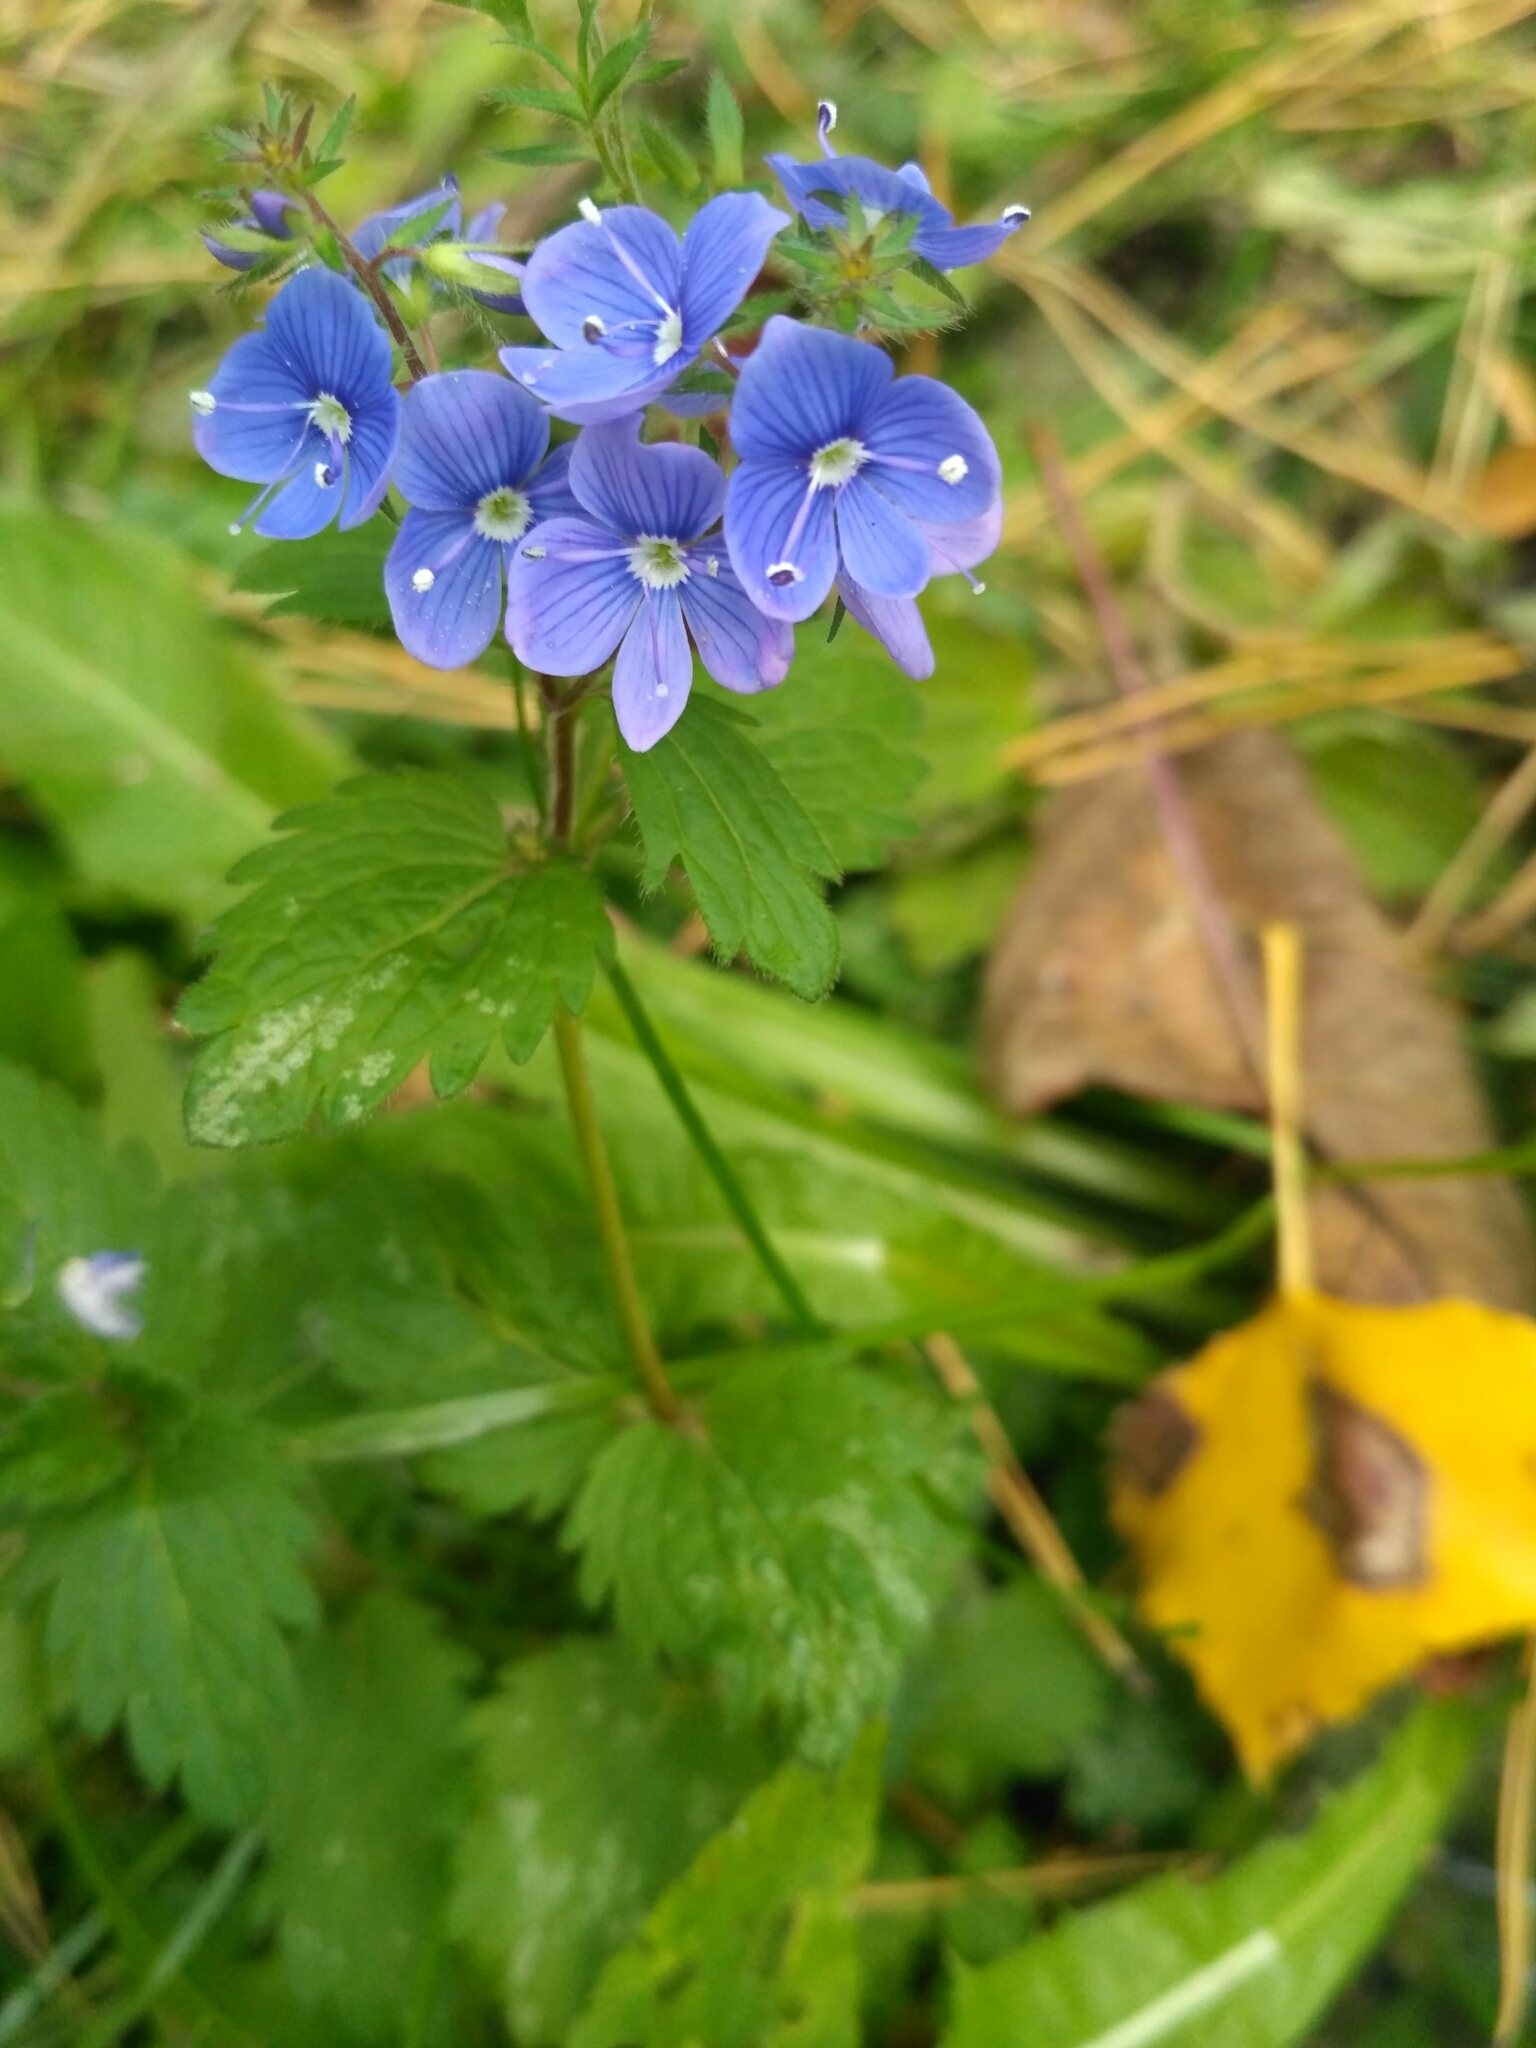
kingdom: Plantae
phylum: Tracheophyta
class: Magnoliopsida
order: Lamiales
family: Plantaginaceae
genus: Veronica
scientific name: Veronica chamaedrys
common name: Germander speedwell
